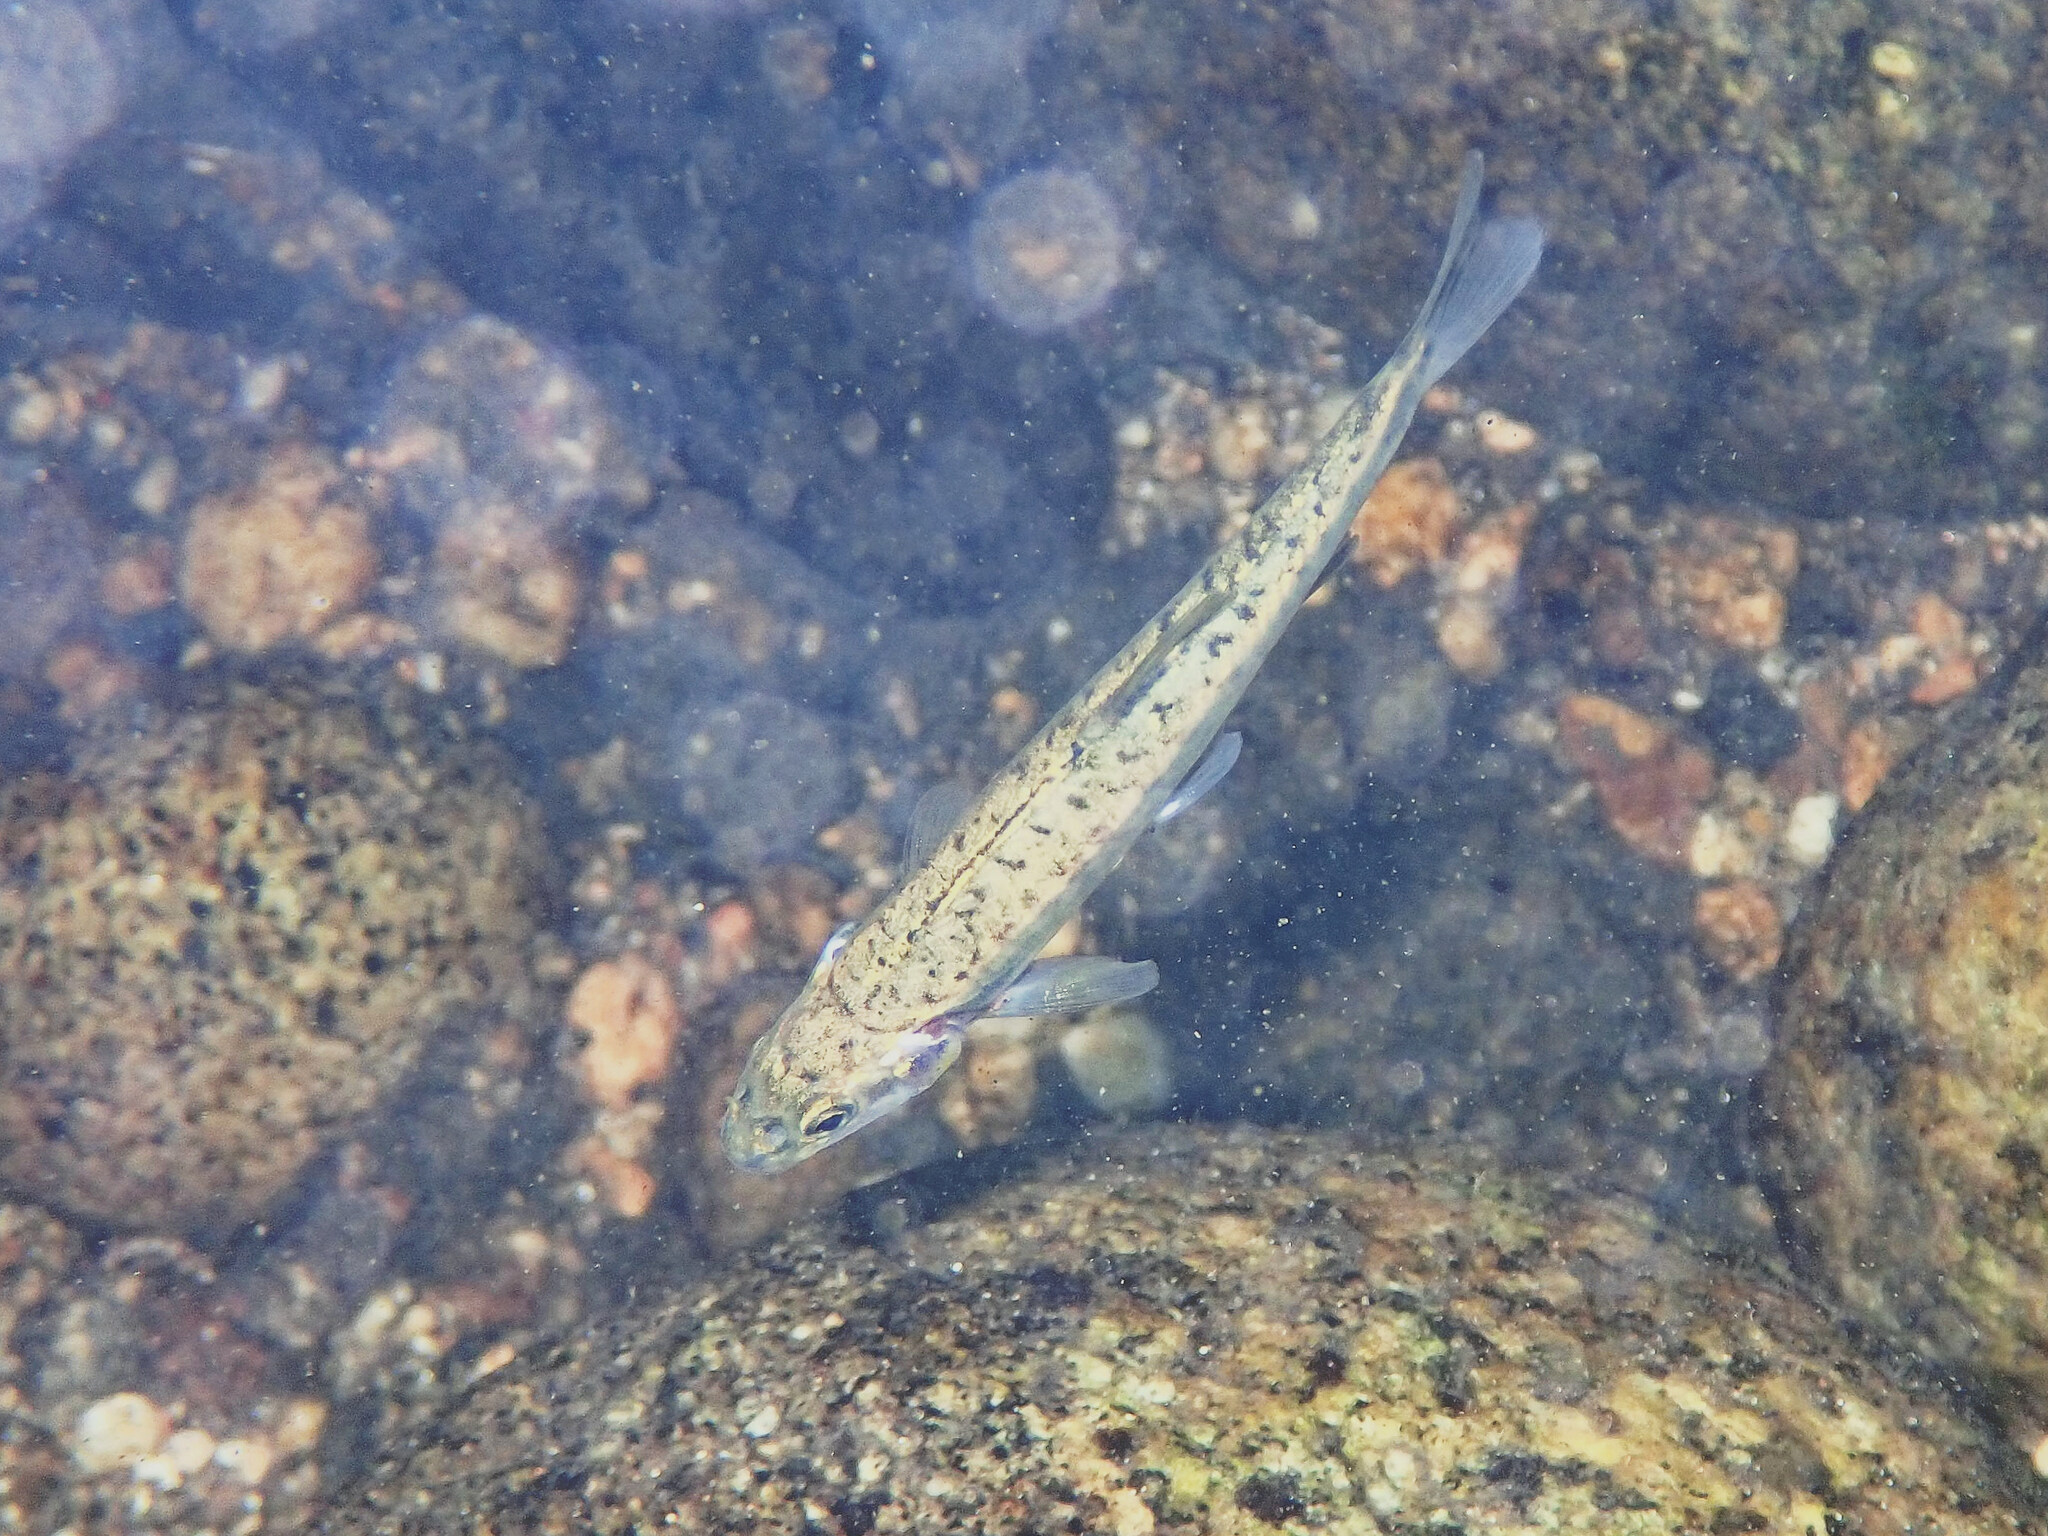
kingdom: Animalia
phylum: Chordata
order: Cypriniformes
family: Cyprinidae
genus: Phoxinus
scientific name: Phoxinus septimaniae
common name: Languedoc minnow
